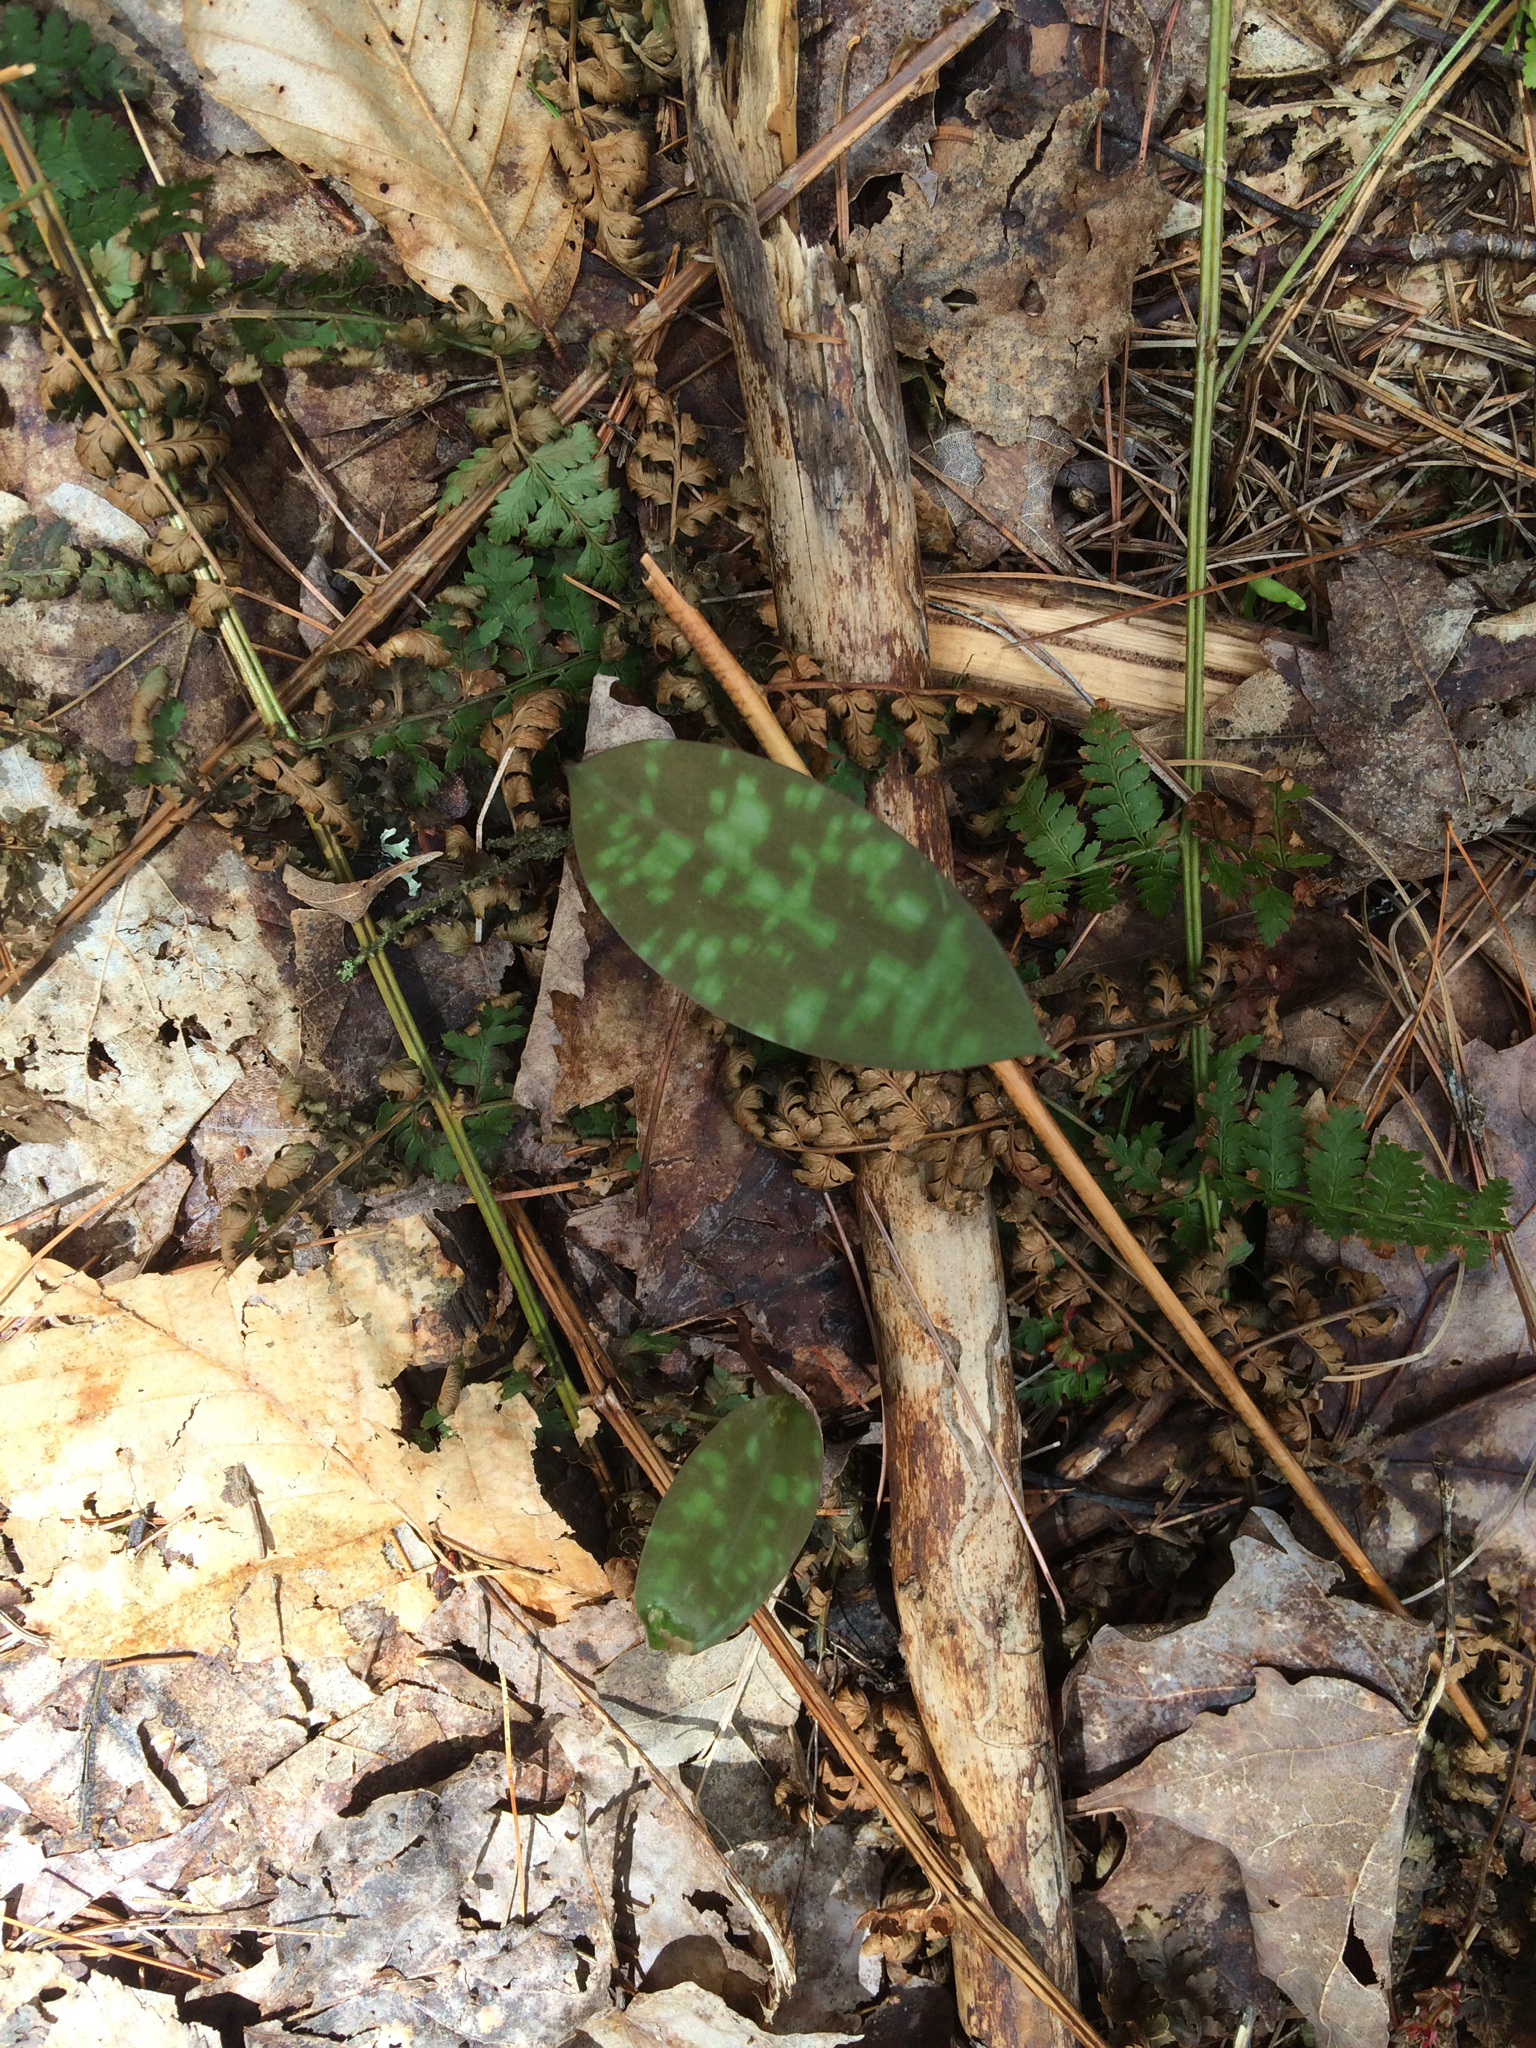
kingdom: Plantae
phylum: Tracheophyta
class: Liliopsida
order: Liliales
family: Liliaceae
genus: Erythronium
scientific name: Erythronium americanum
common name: Yellow adder's-tongue
